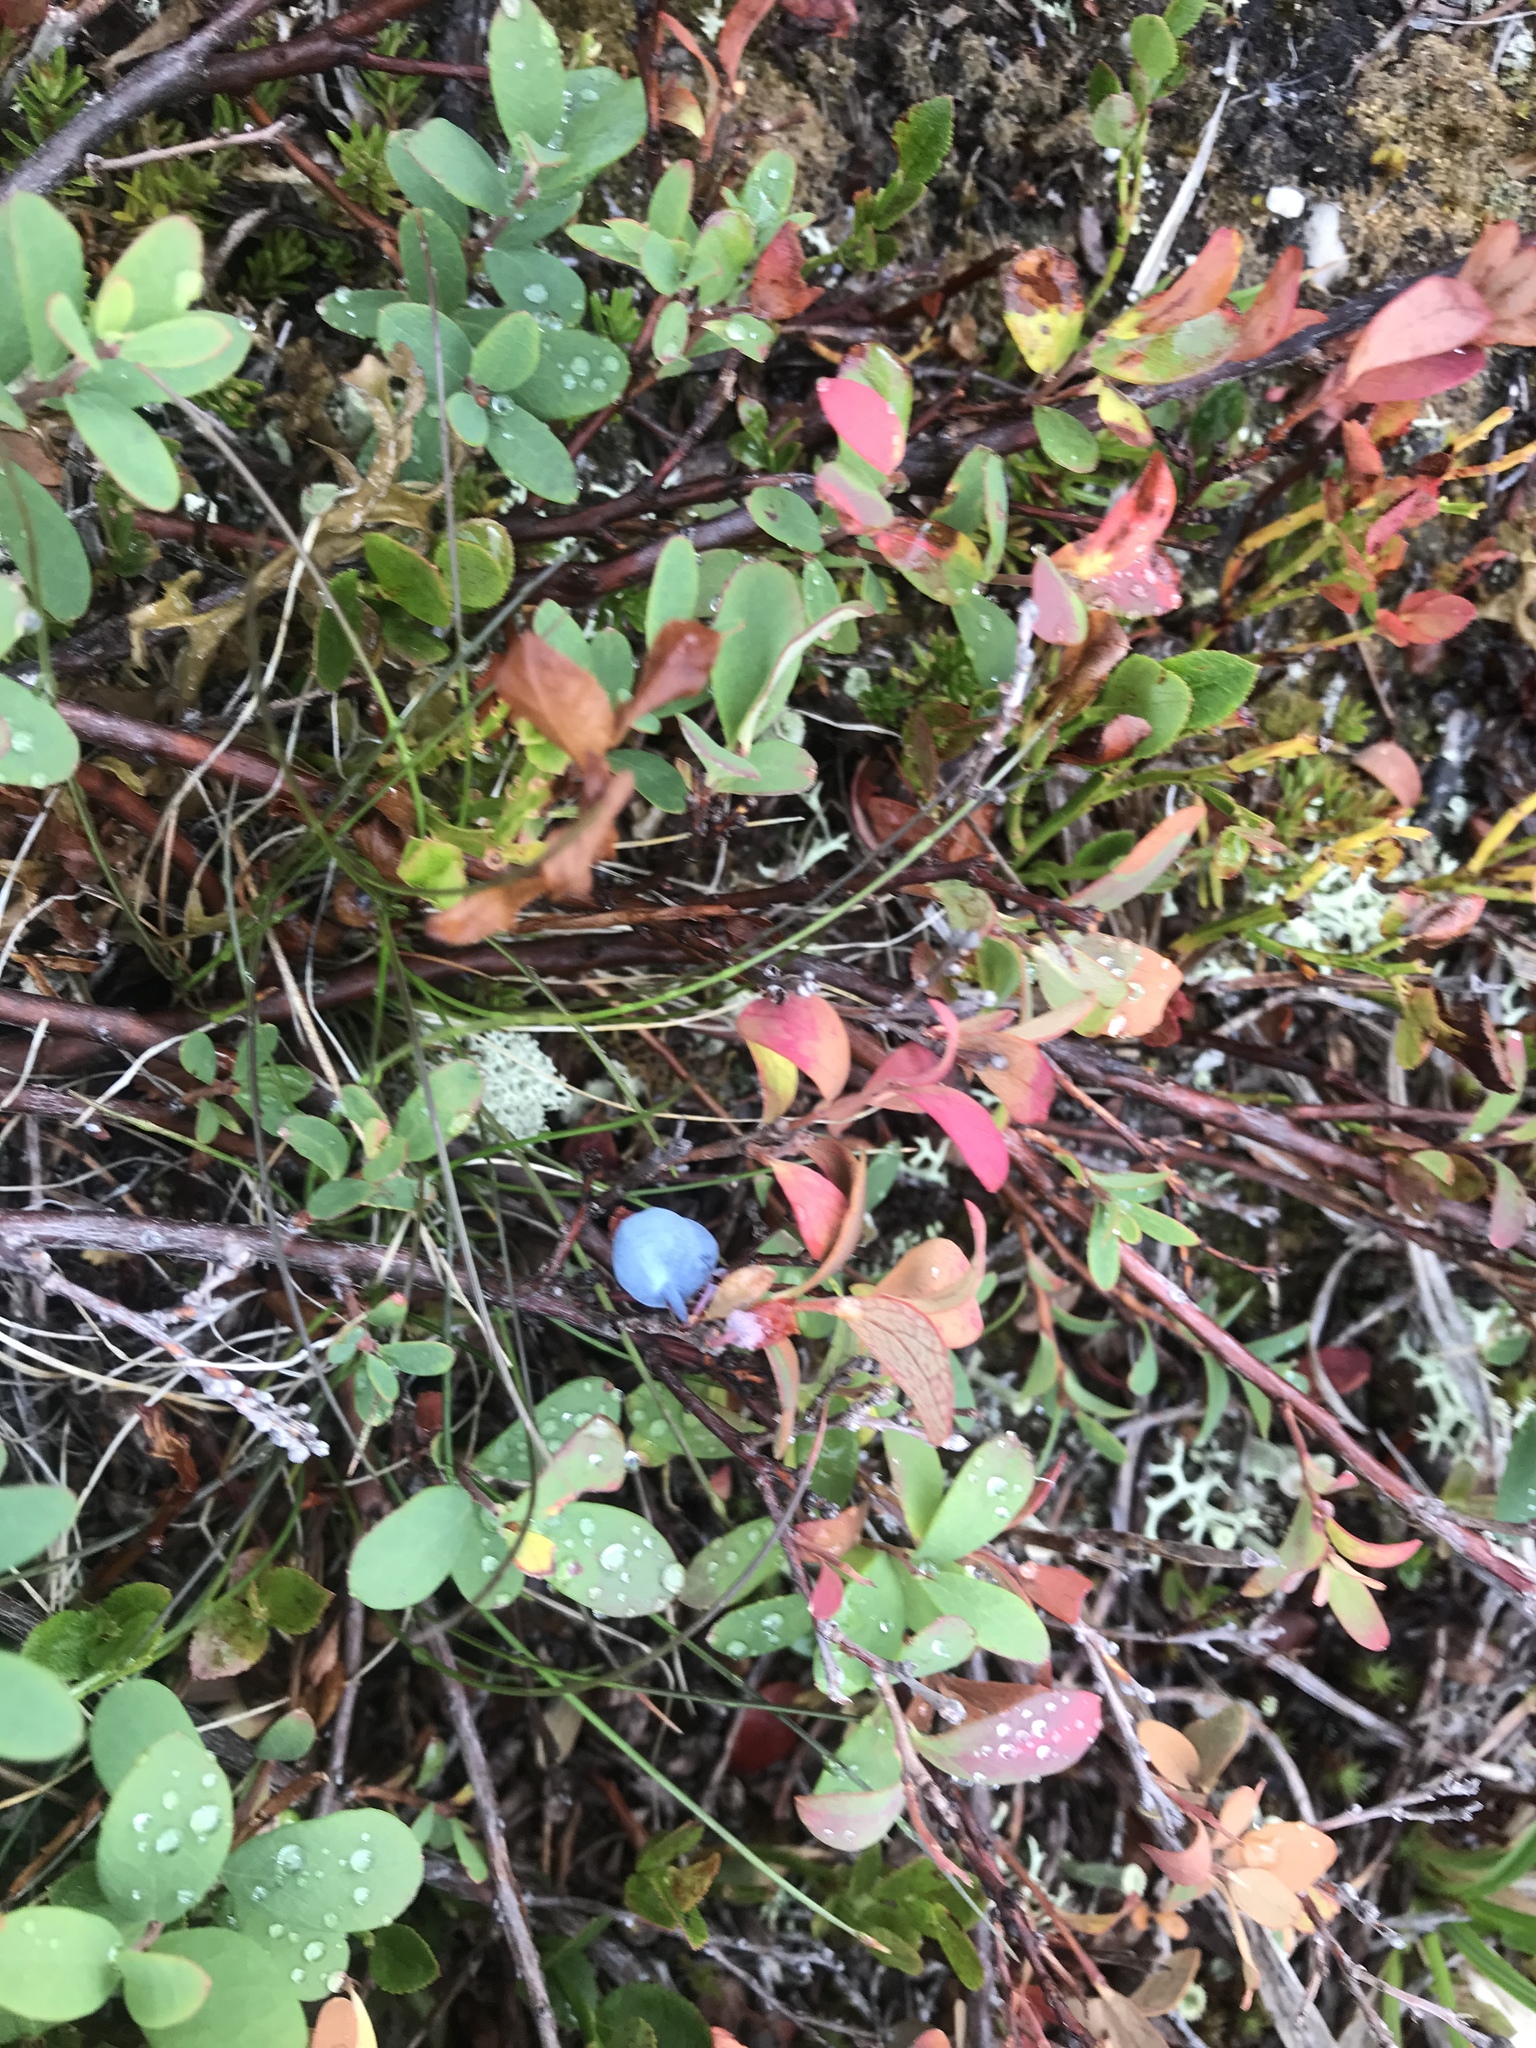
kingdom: Plantae
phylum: Tracheophyta
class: Magnoliopsida
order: Ericales
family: Ericaceae
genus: Vaccinium
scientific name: Vaccinium uliginosum
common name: Bog bilberry
